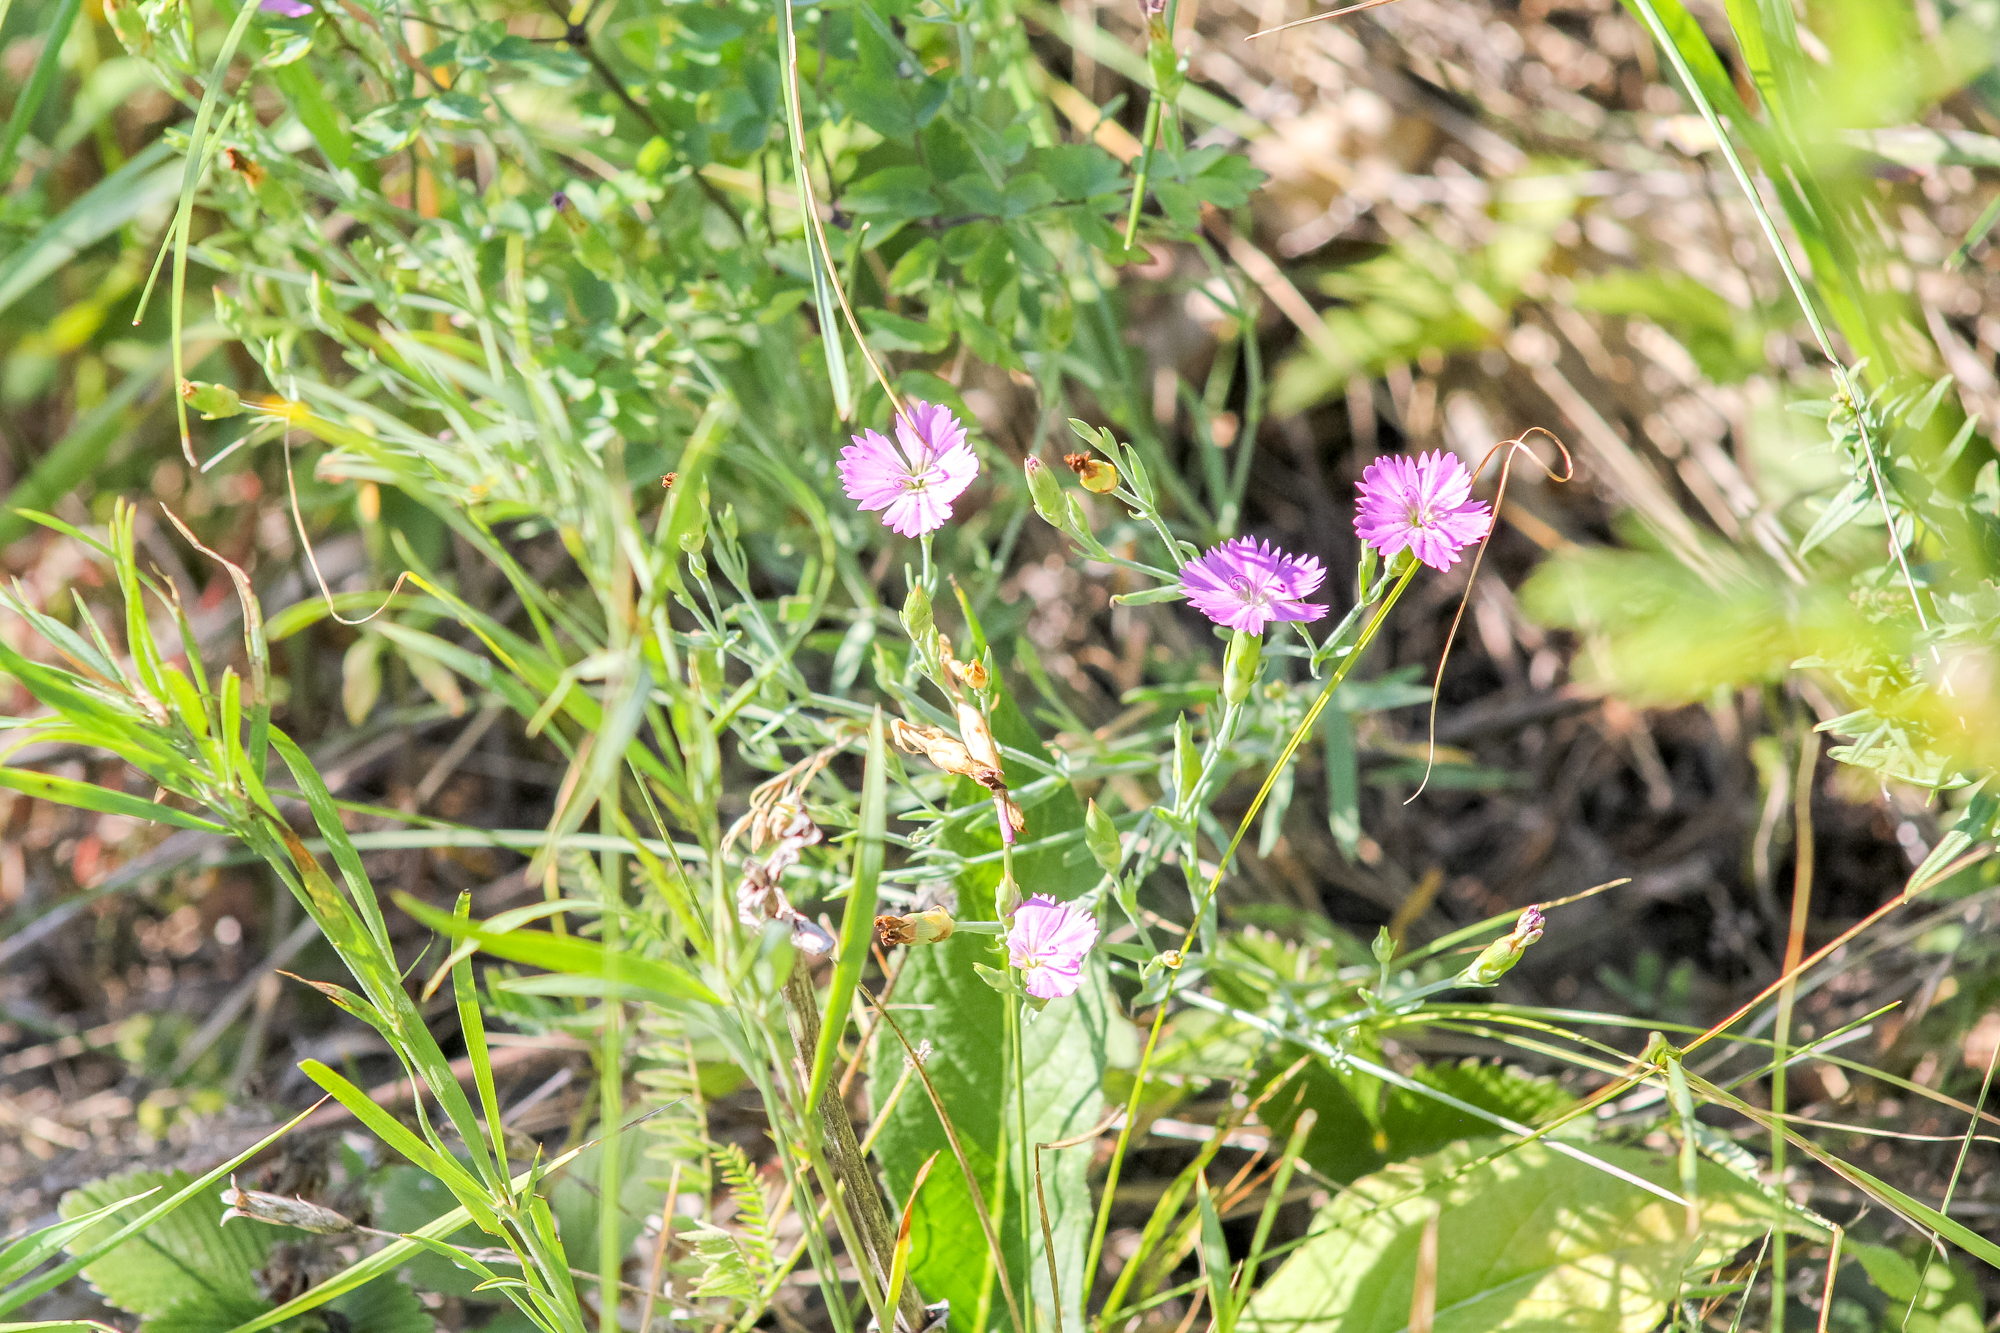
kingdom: Plantae
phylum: Tracheophyta
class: Magnoliopsida
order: Caryophyllales
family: Caryophyllaceae
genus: Dianthus
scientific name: Dianthus chinensis
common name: Rainbow pink
